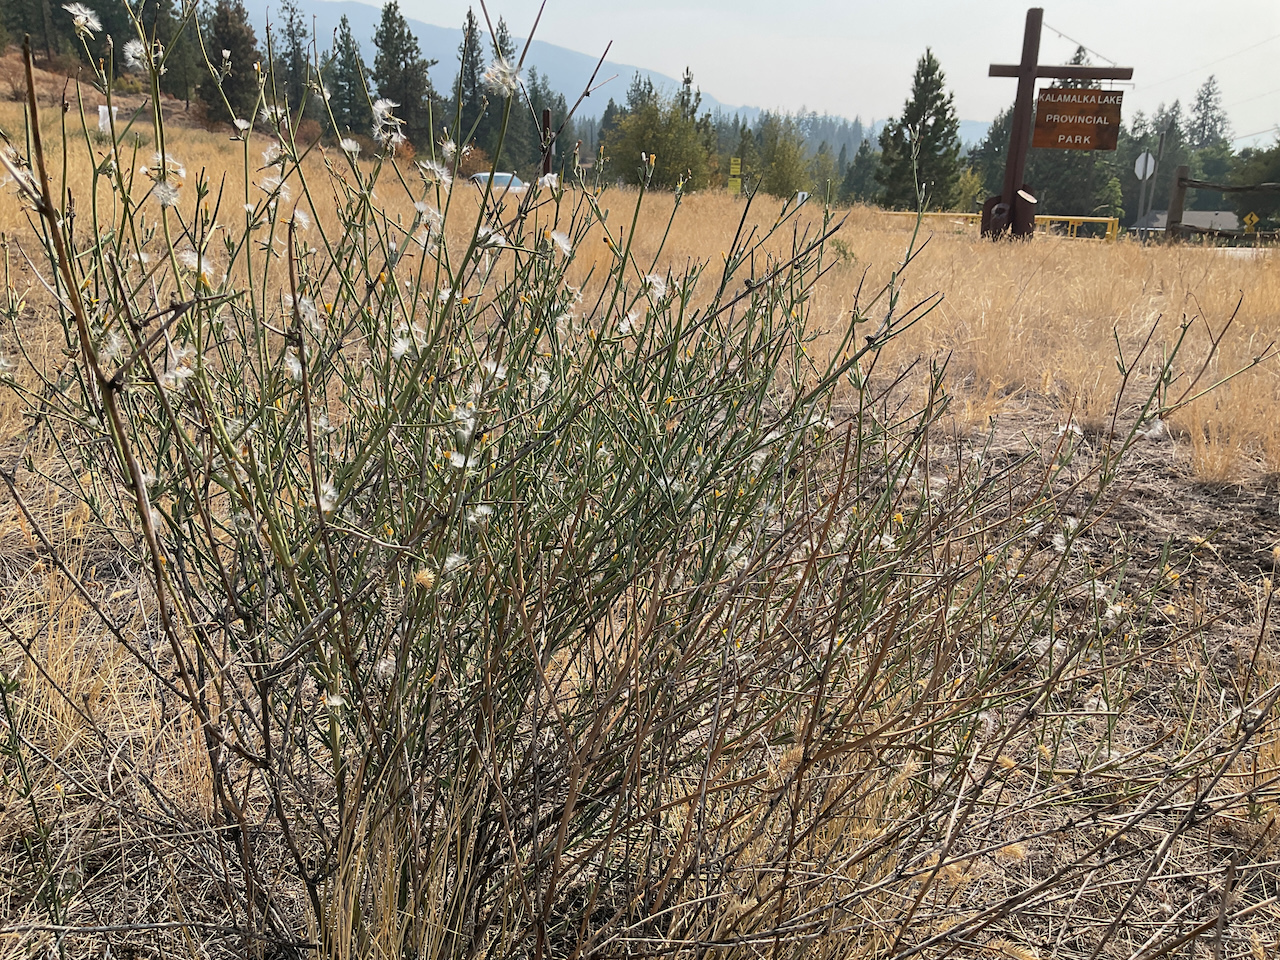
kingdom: Plantae
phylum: Tracheophyta
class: Magnoliopsida
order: Asterales
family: Asteraceae
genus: Chondrilla
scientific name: Chondrilla juncea
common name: Skeleton weed
